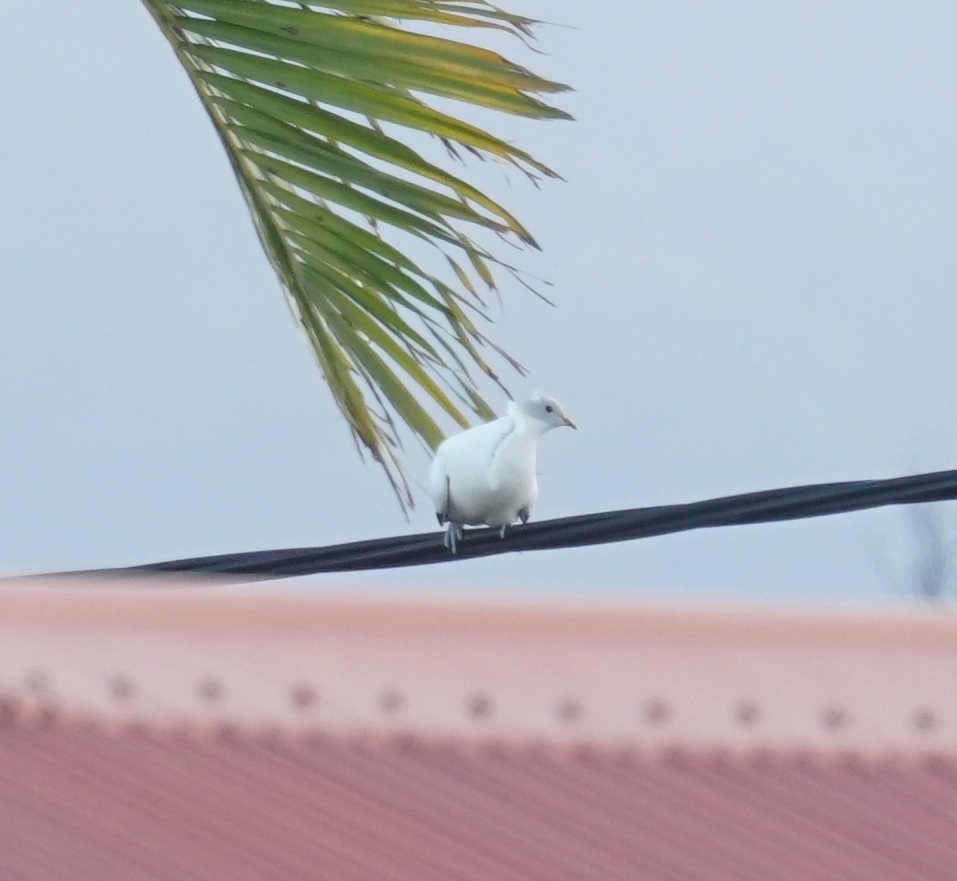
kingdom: Animalia
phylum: Chordata
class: Aves
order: Columbiformes
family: Columbidae
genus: Ducula
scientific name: Ducula spilorrhoa
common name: Torresian imperial pigeon
